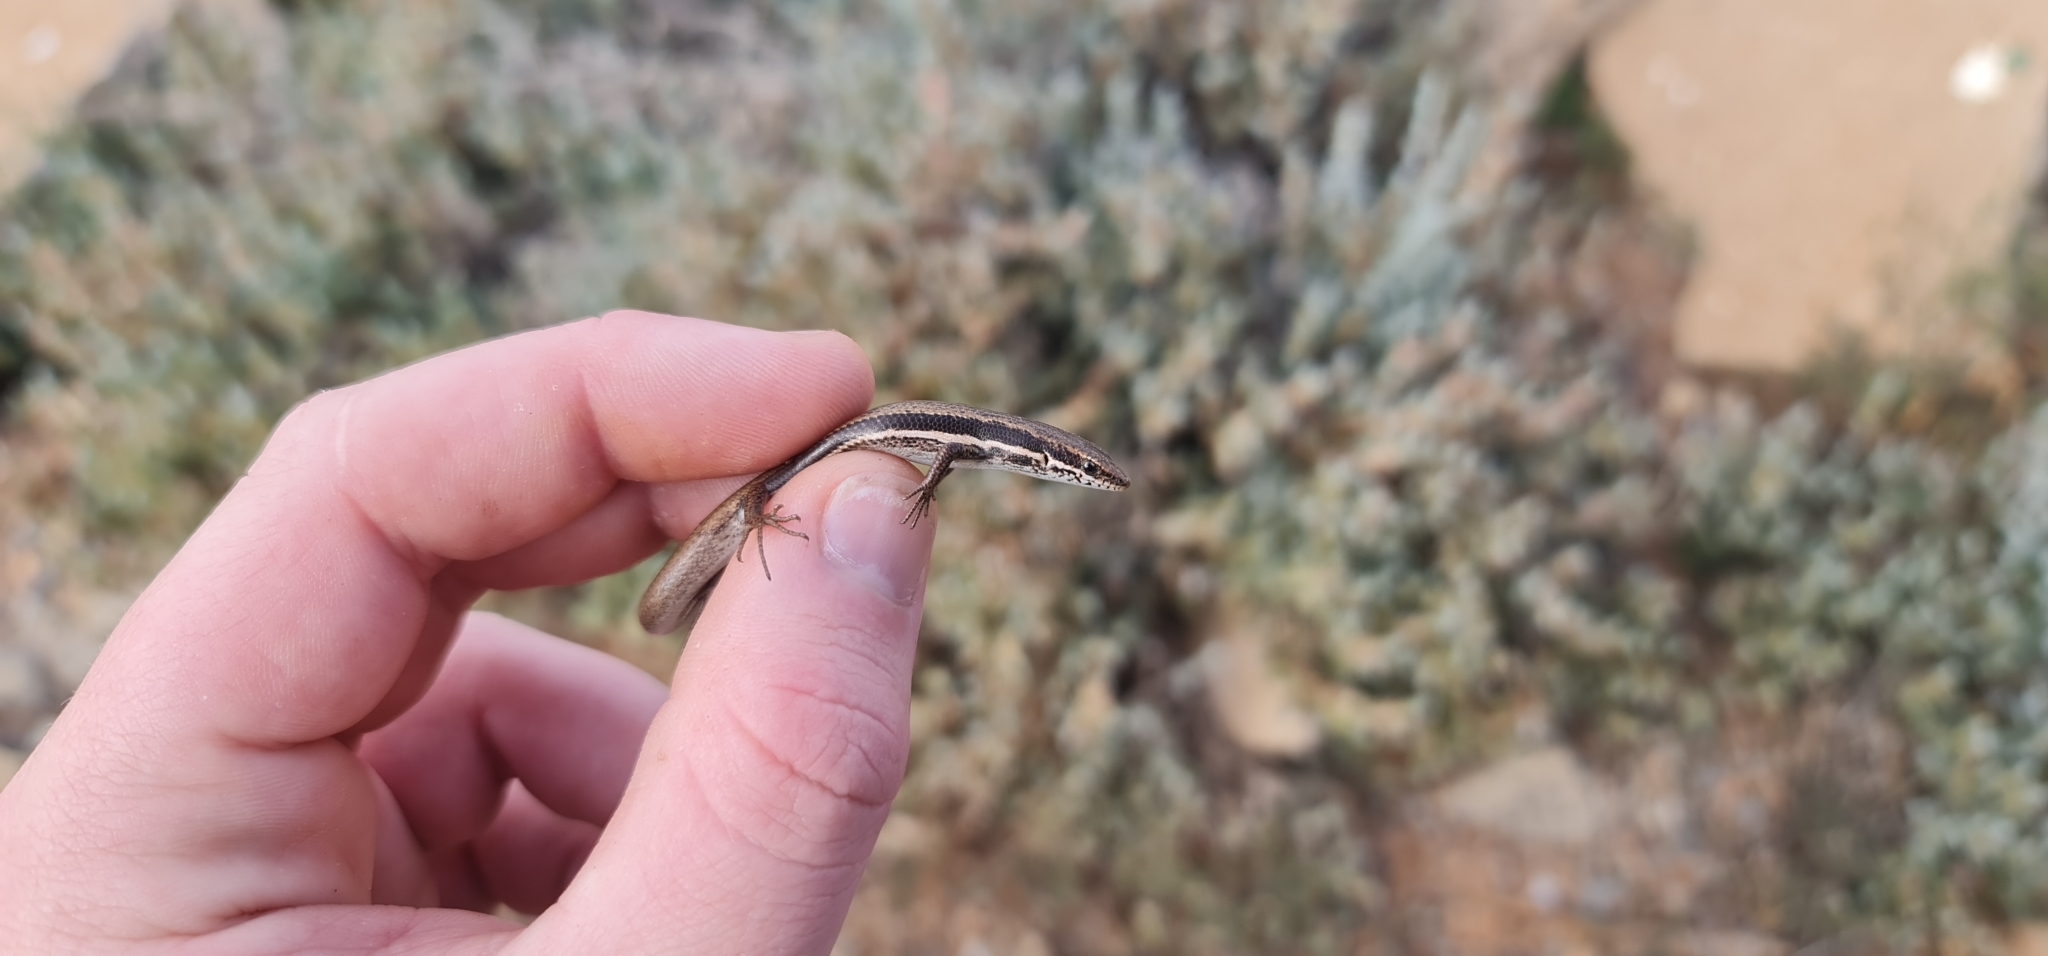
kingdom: Animalia
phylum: Chordata
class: Squamata
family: Scincidae
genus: Morethia
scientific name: Morethia boulengeri
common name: South-eastern morethia skink
